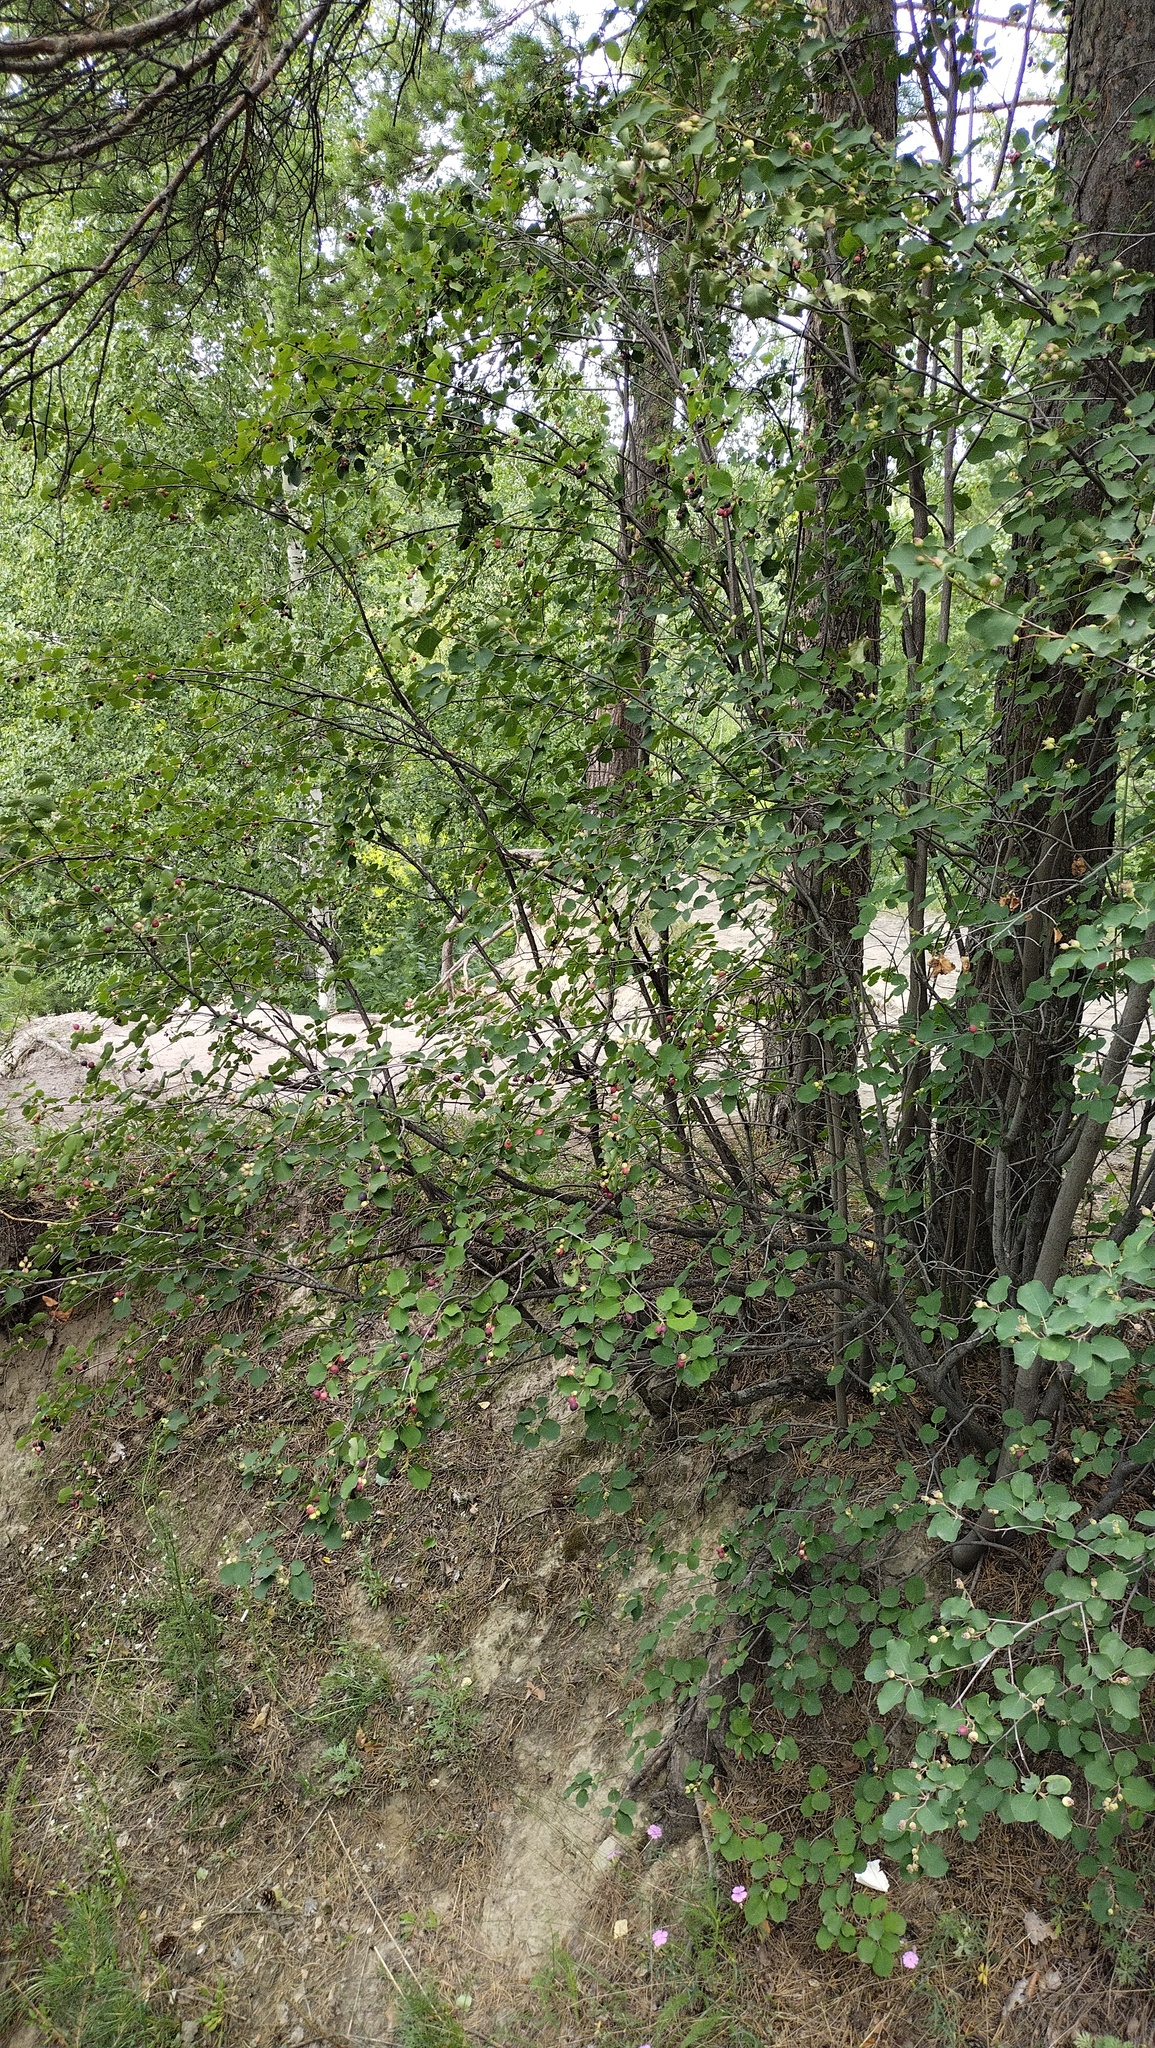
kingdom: Plantae
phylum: Tracheophyta
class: Magnoliopsida
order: Rosales
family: Rosaceae
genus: Amelanchier
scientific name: Amelanchier
